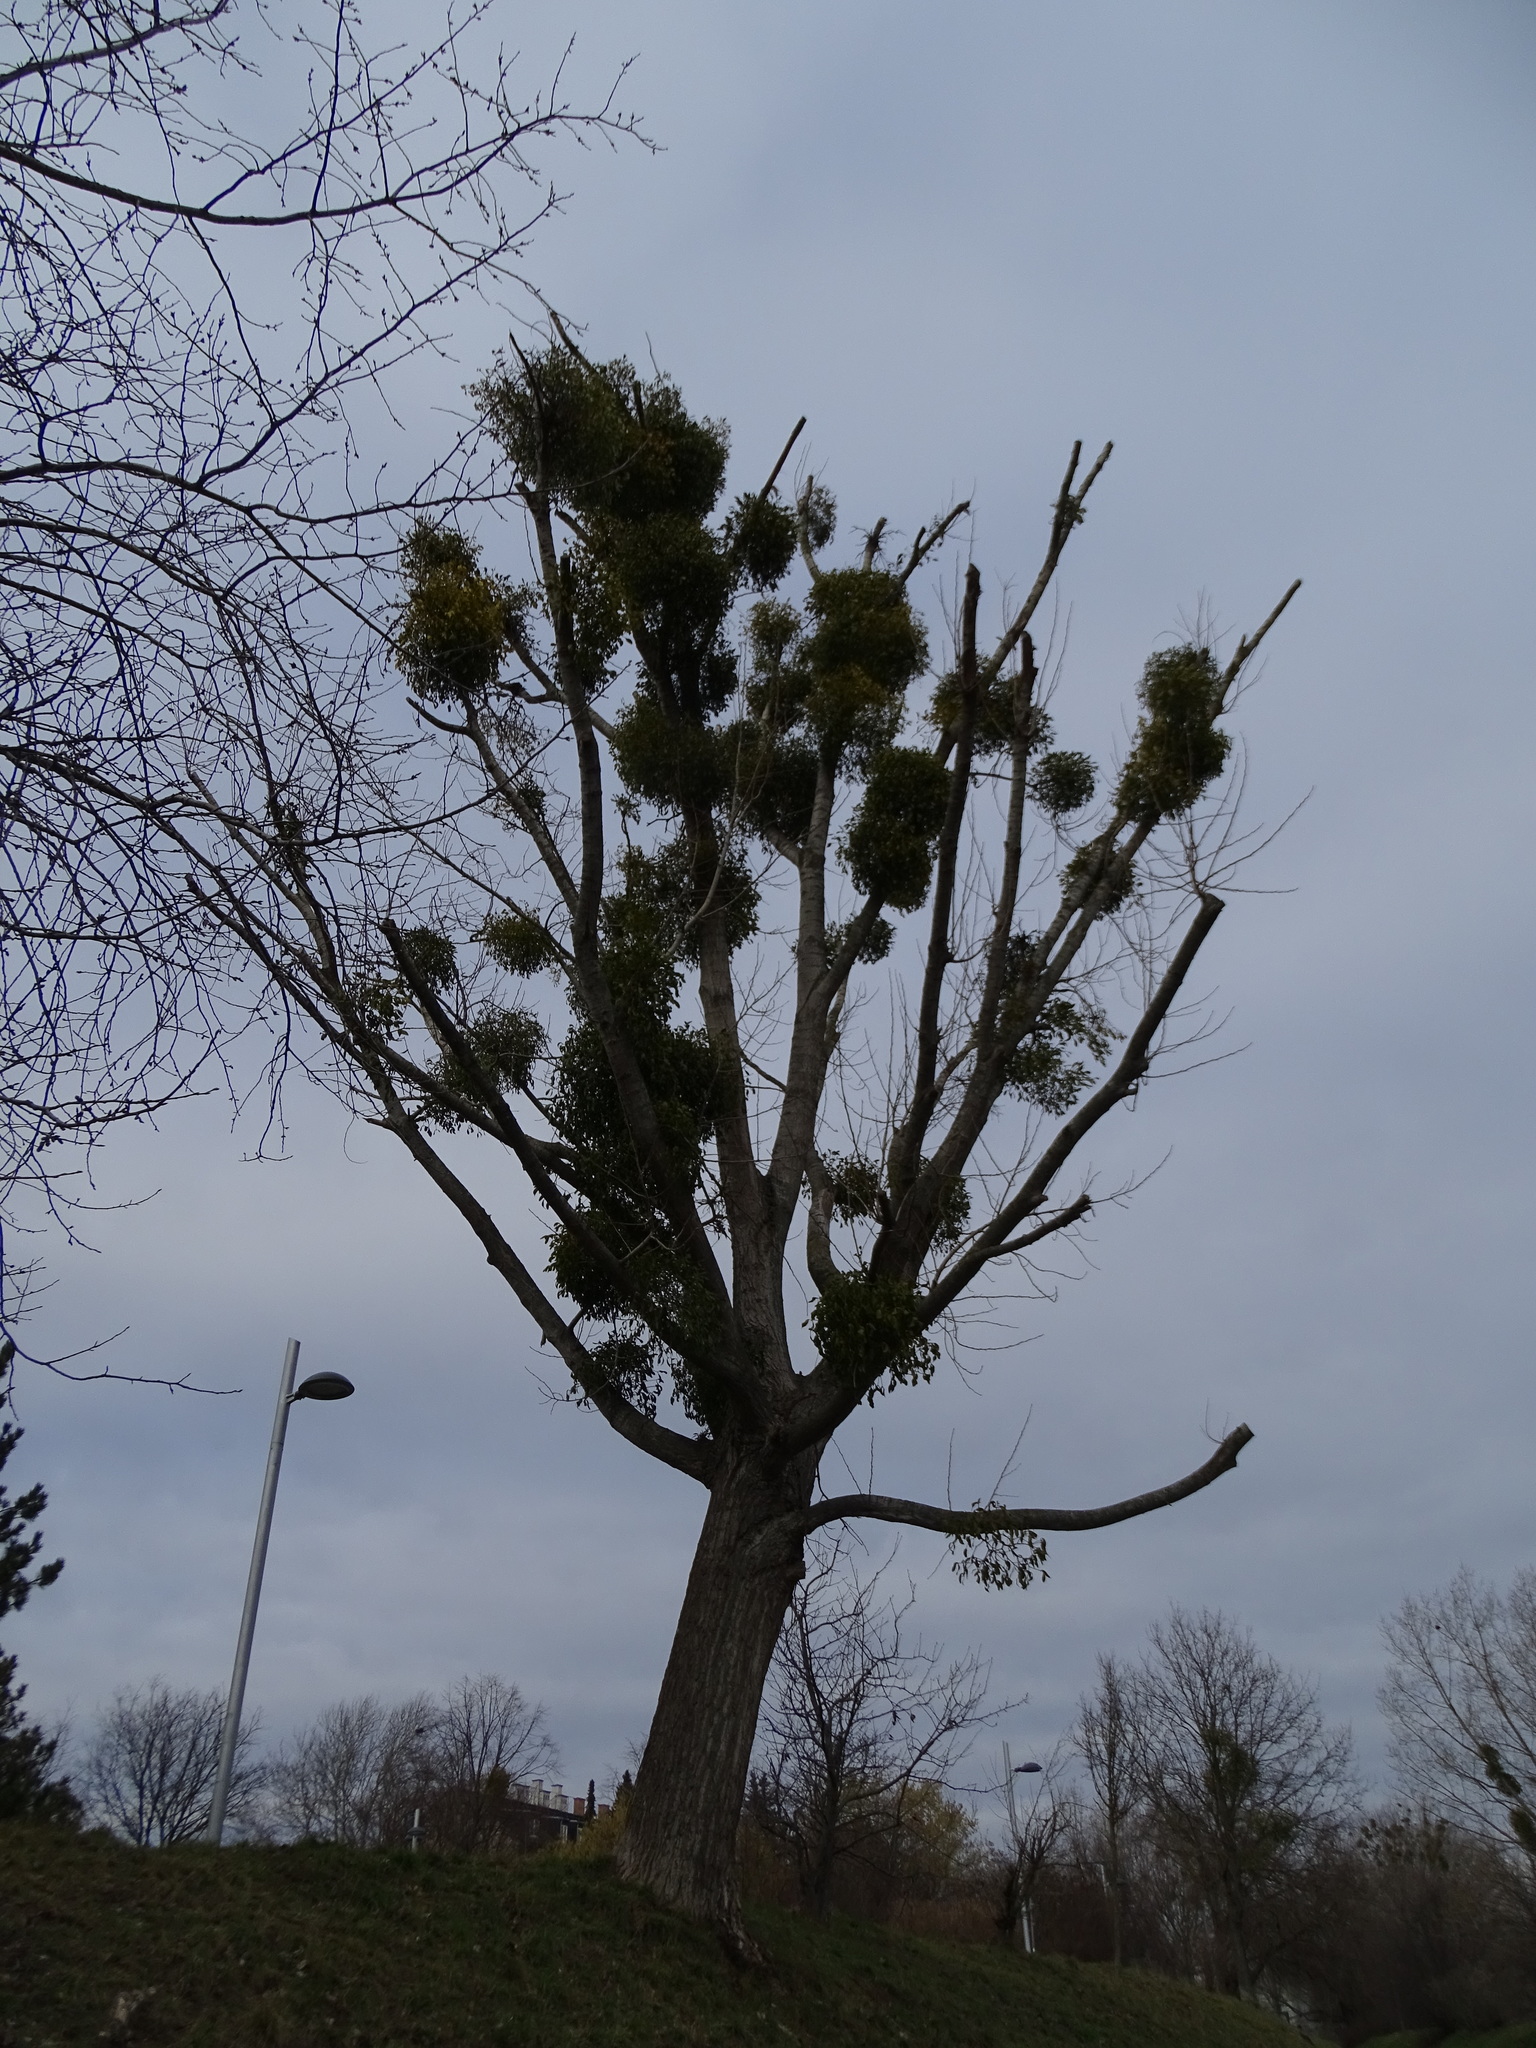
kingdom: Plantae
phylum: Tracheophyta
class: Magnoliopsida
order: Santalales
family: Viscaceae
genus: Viscum
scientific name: Viscum album
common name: Mistletoe
